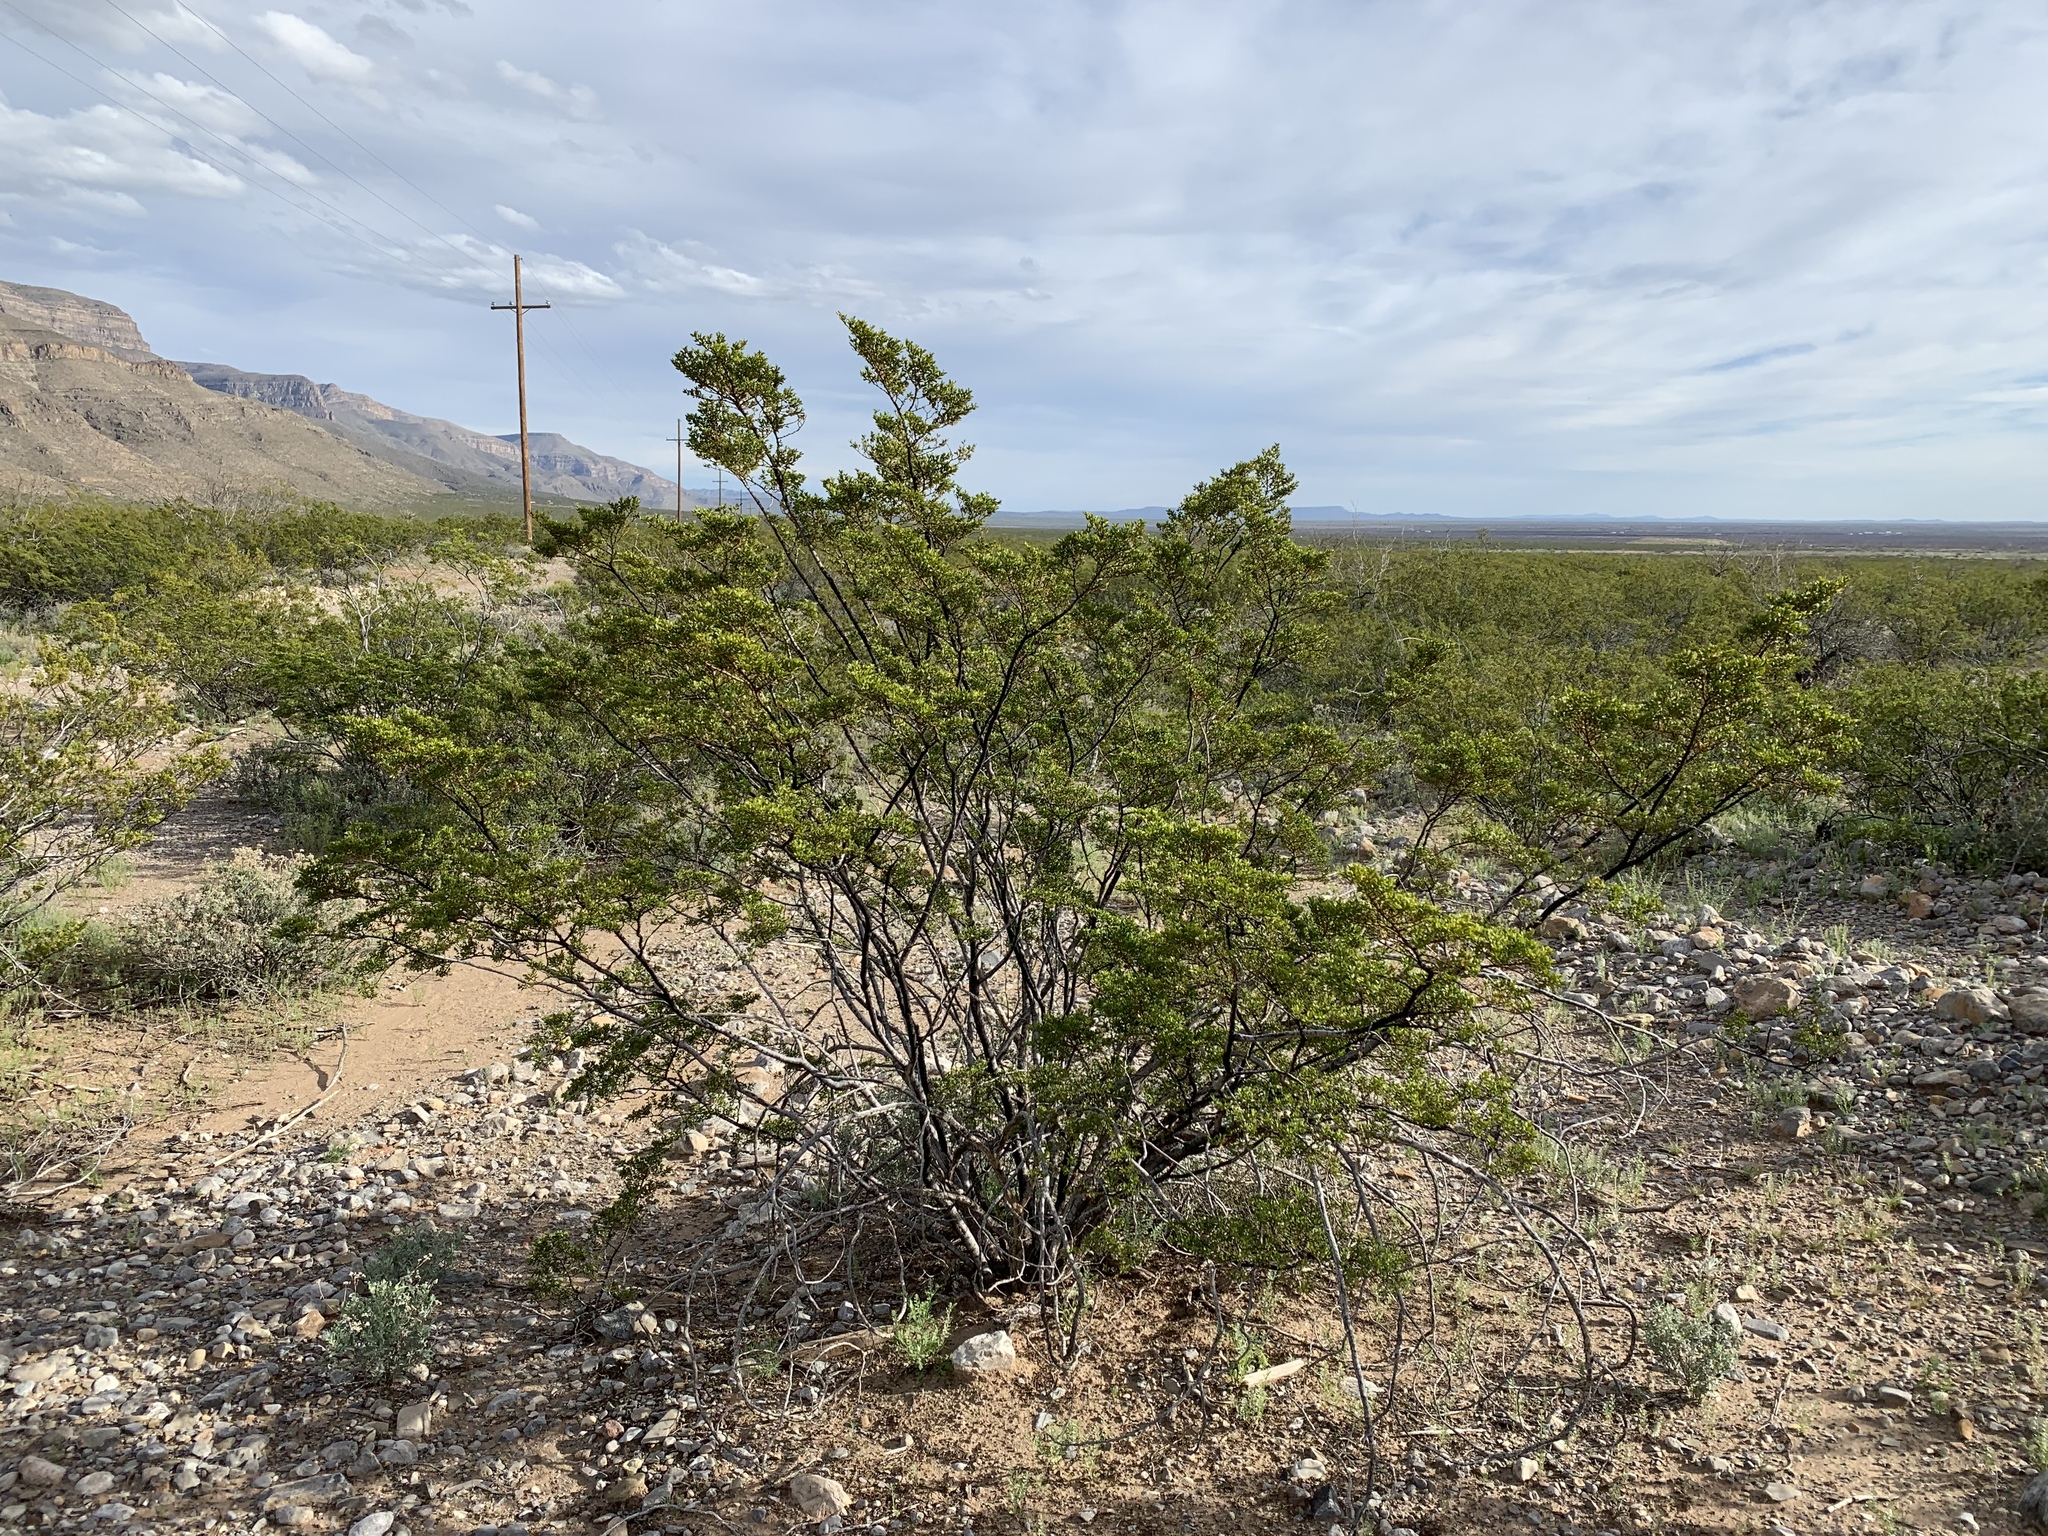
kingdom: Plantae
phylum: Tracheophyta
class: Magnoliopsida
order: Zygophyllales
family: Zygophyllaceae
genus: Larrea
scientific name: Larrea tridentata
